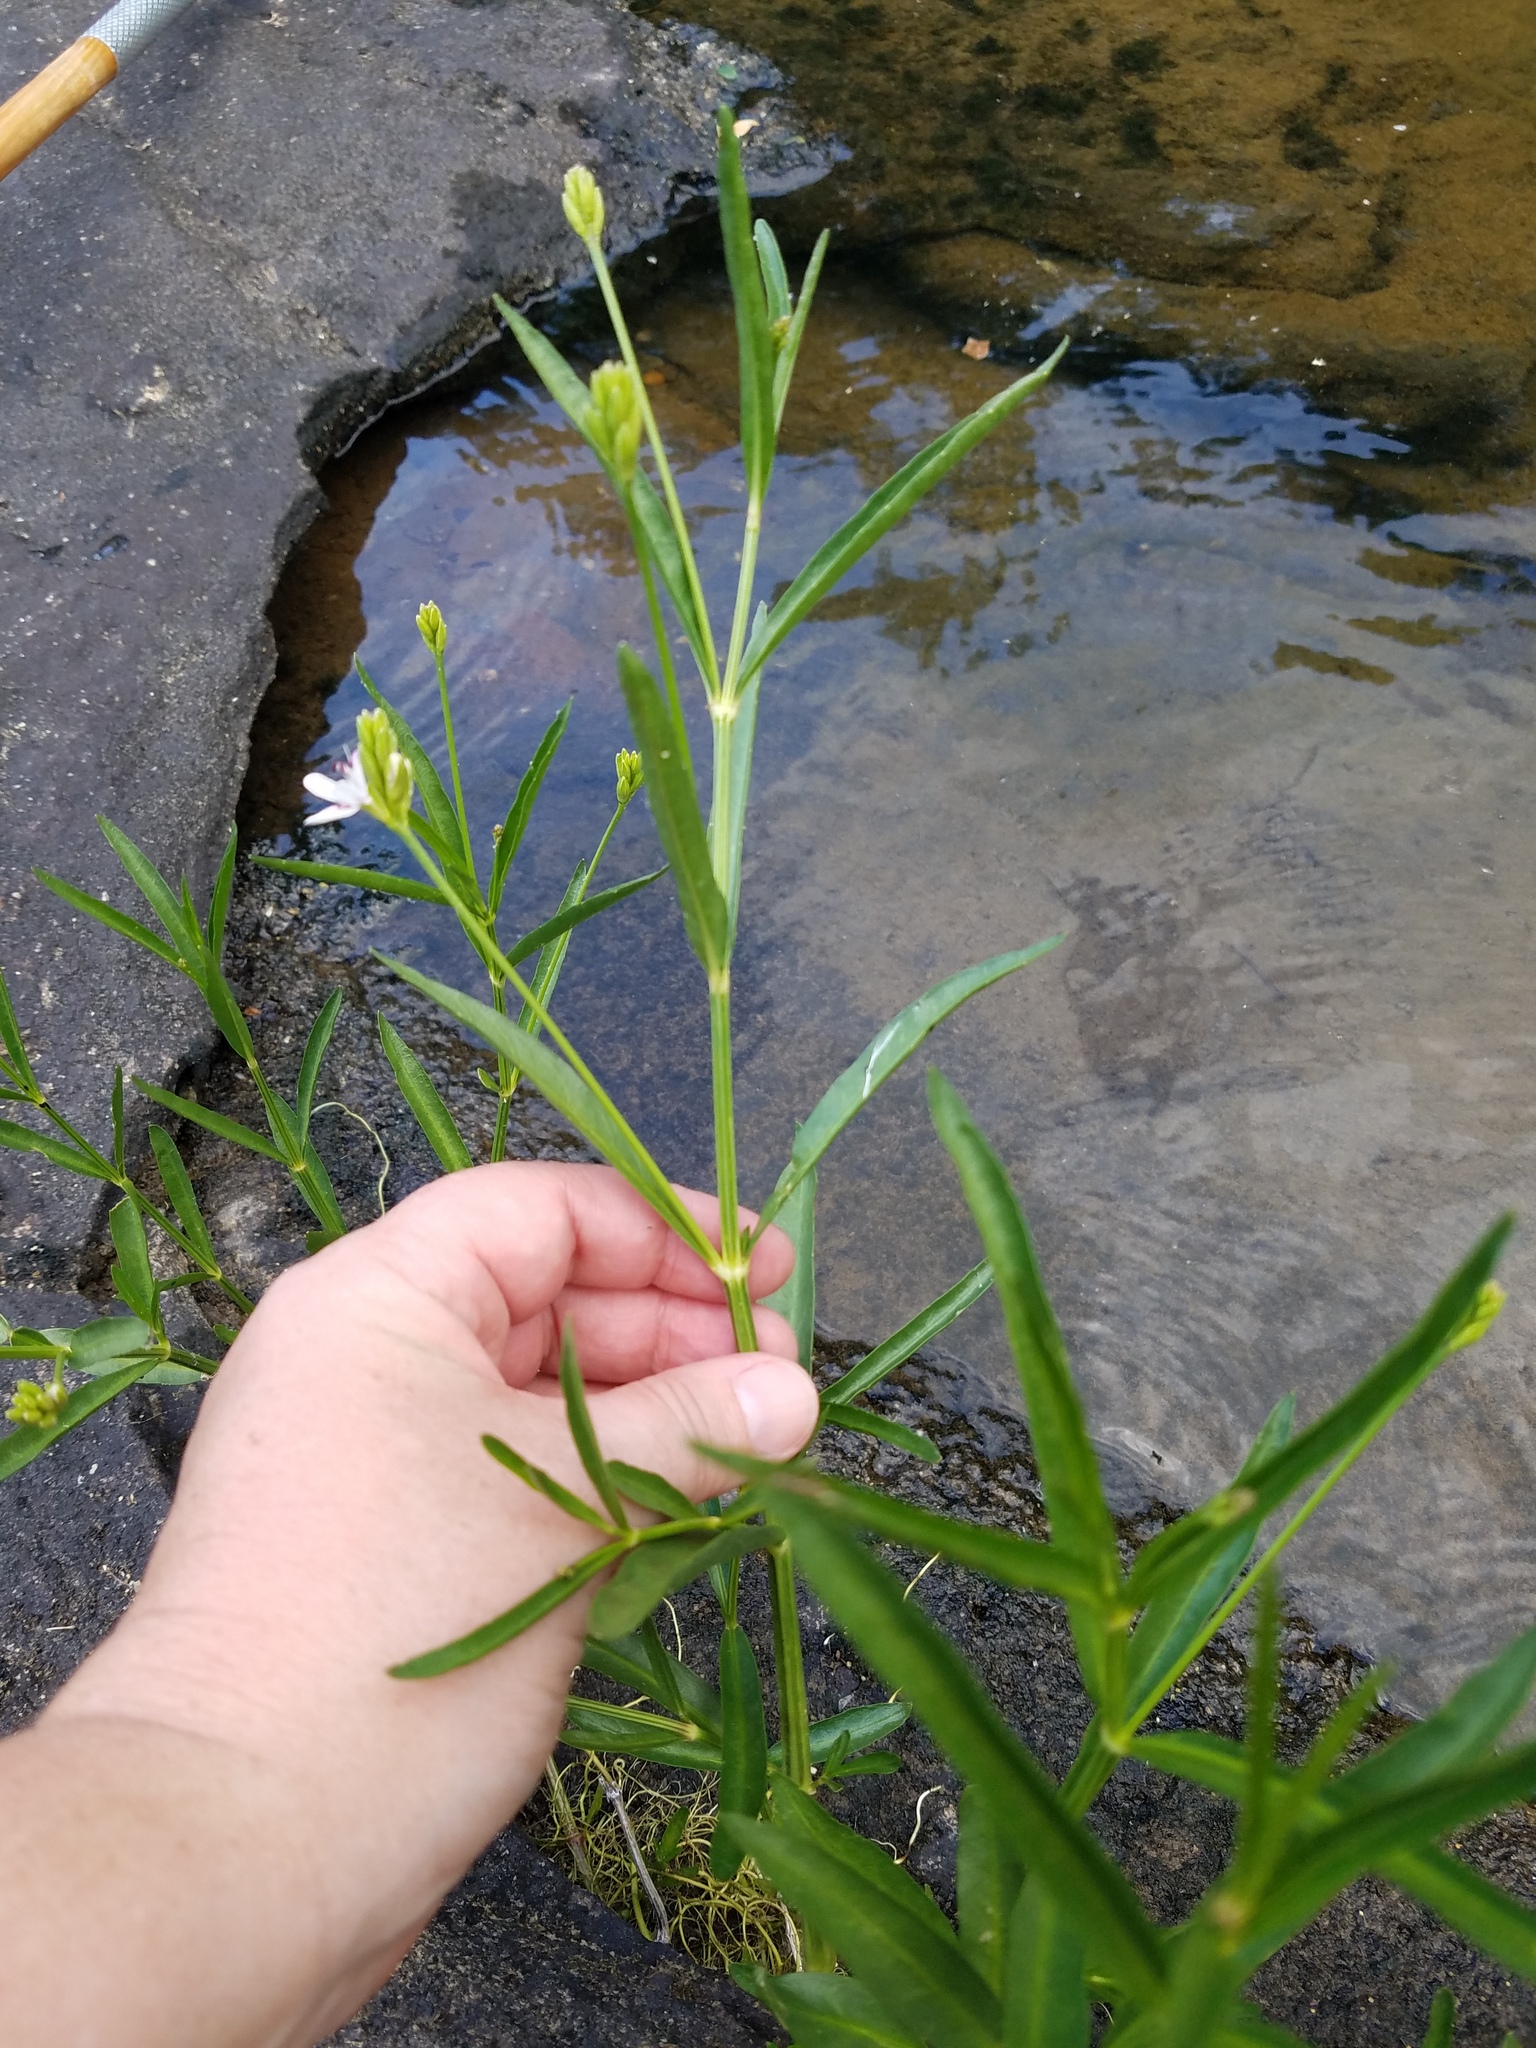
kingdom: Plantae
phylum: Tracheophyta
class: Magnoliopsida
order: Lamiales
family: Acanthaceae
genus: Dianthera
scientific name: Dianthera americana
